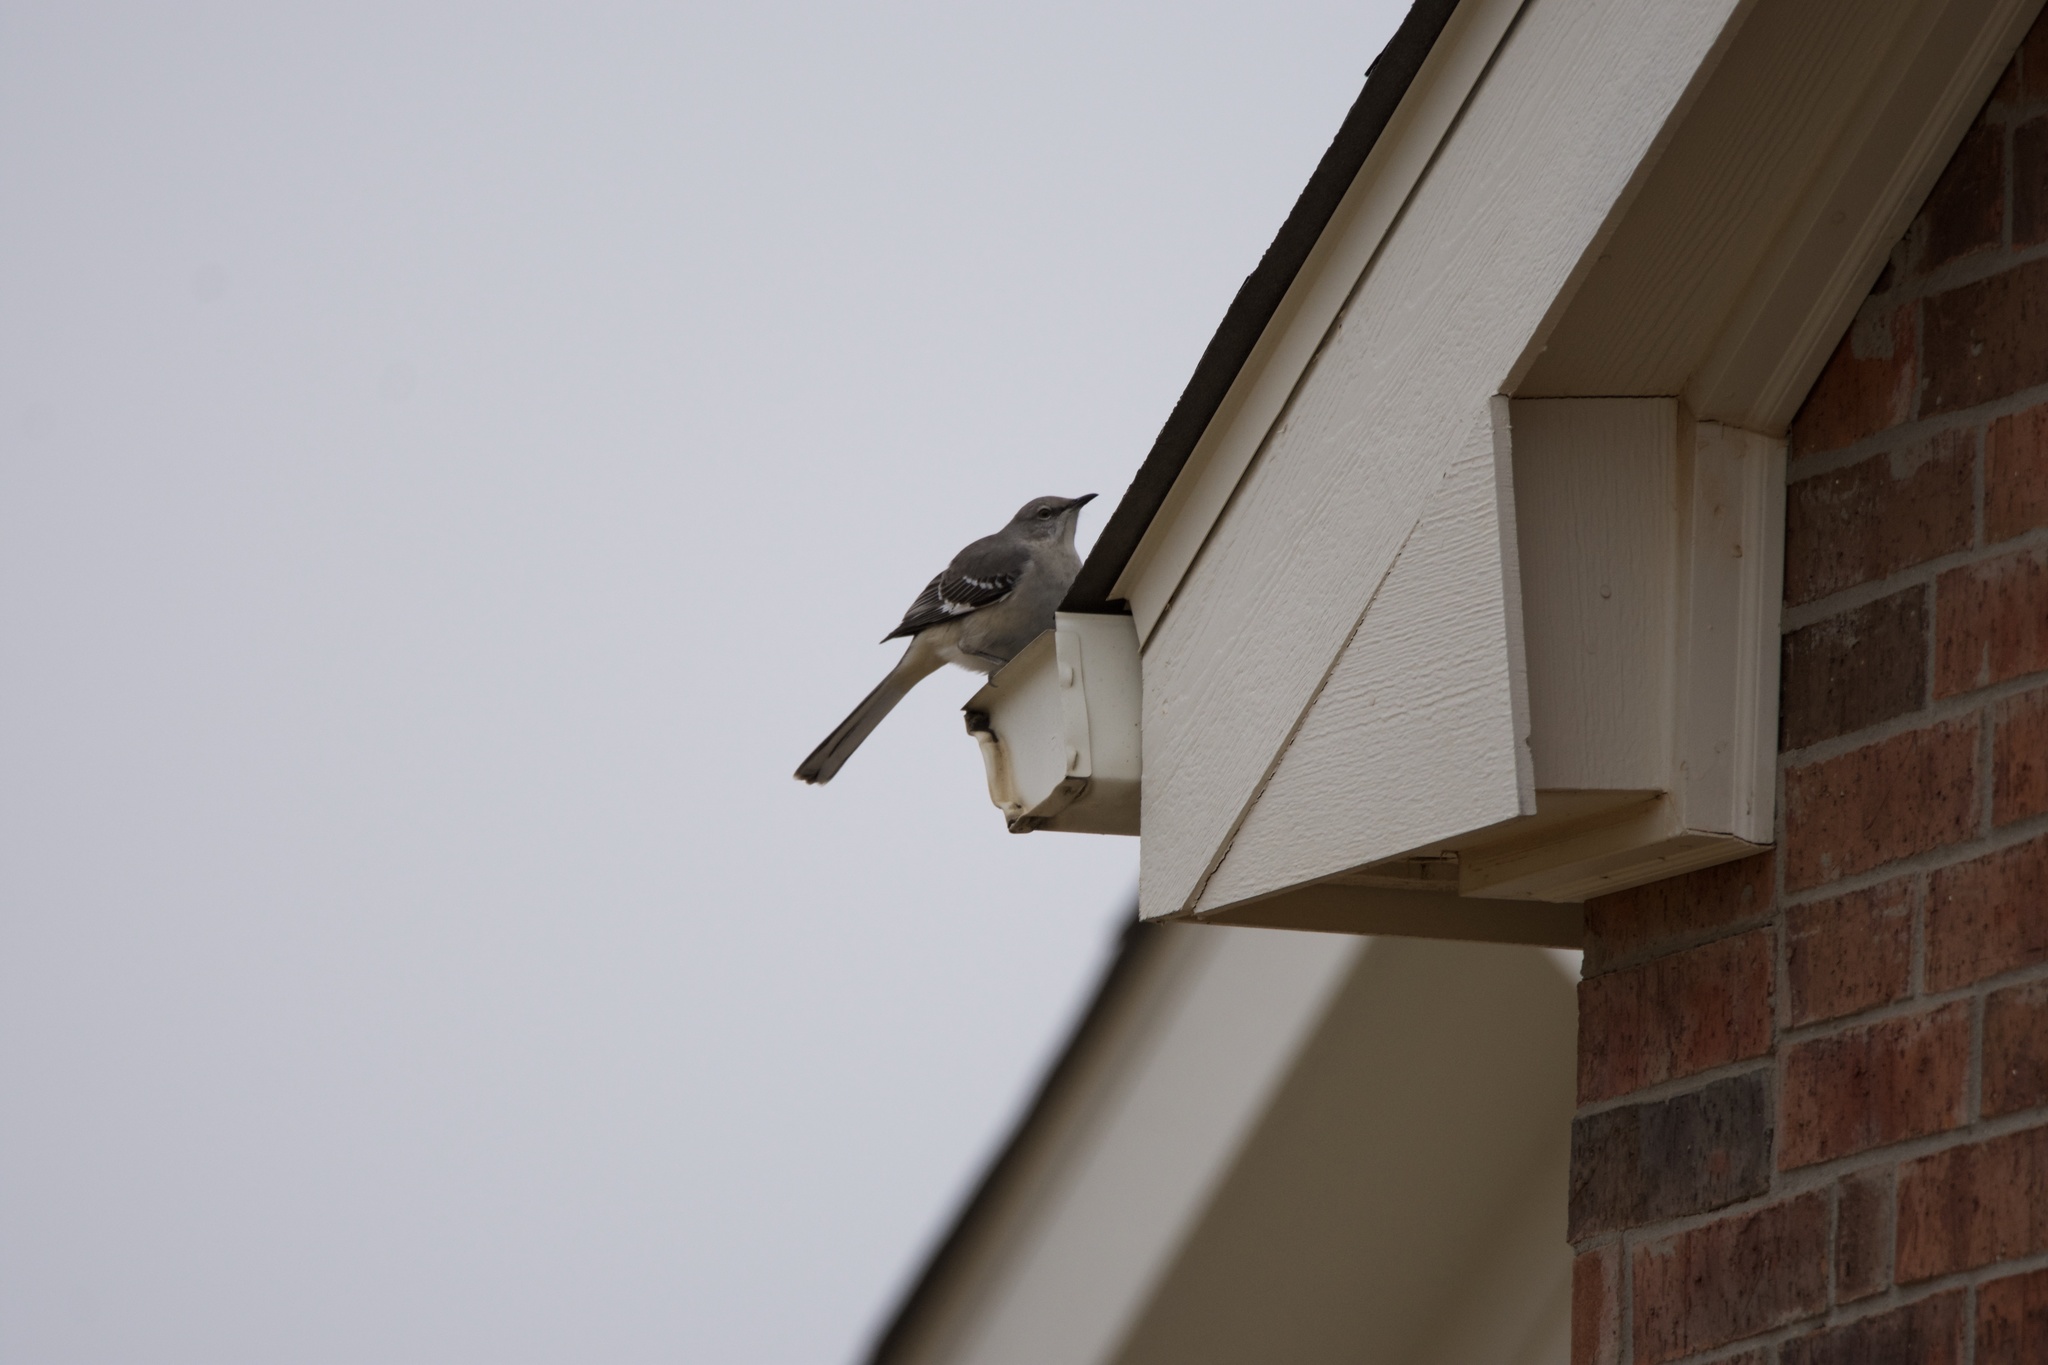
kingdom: Animalia
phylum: Chordata
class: Aves
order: Passeriformes
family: Mimidae
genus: Mimus
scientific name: Mimus polyglottos
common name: Northern mockingbird
